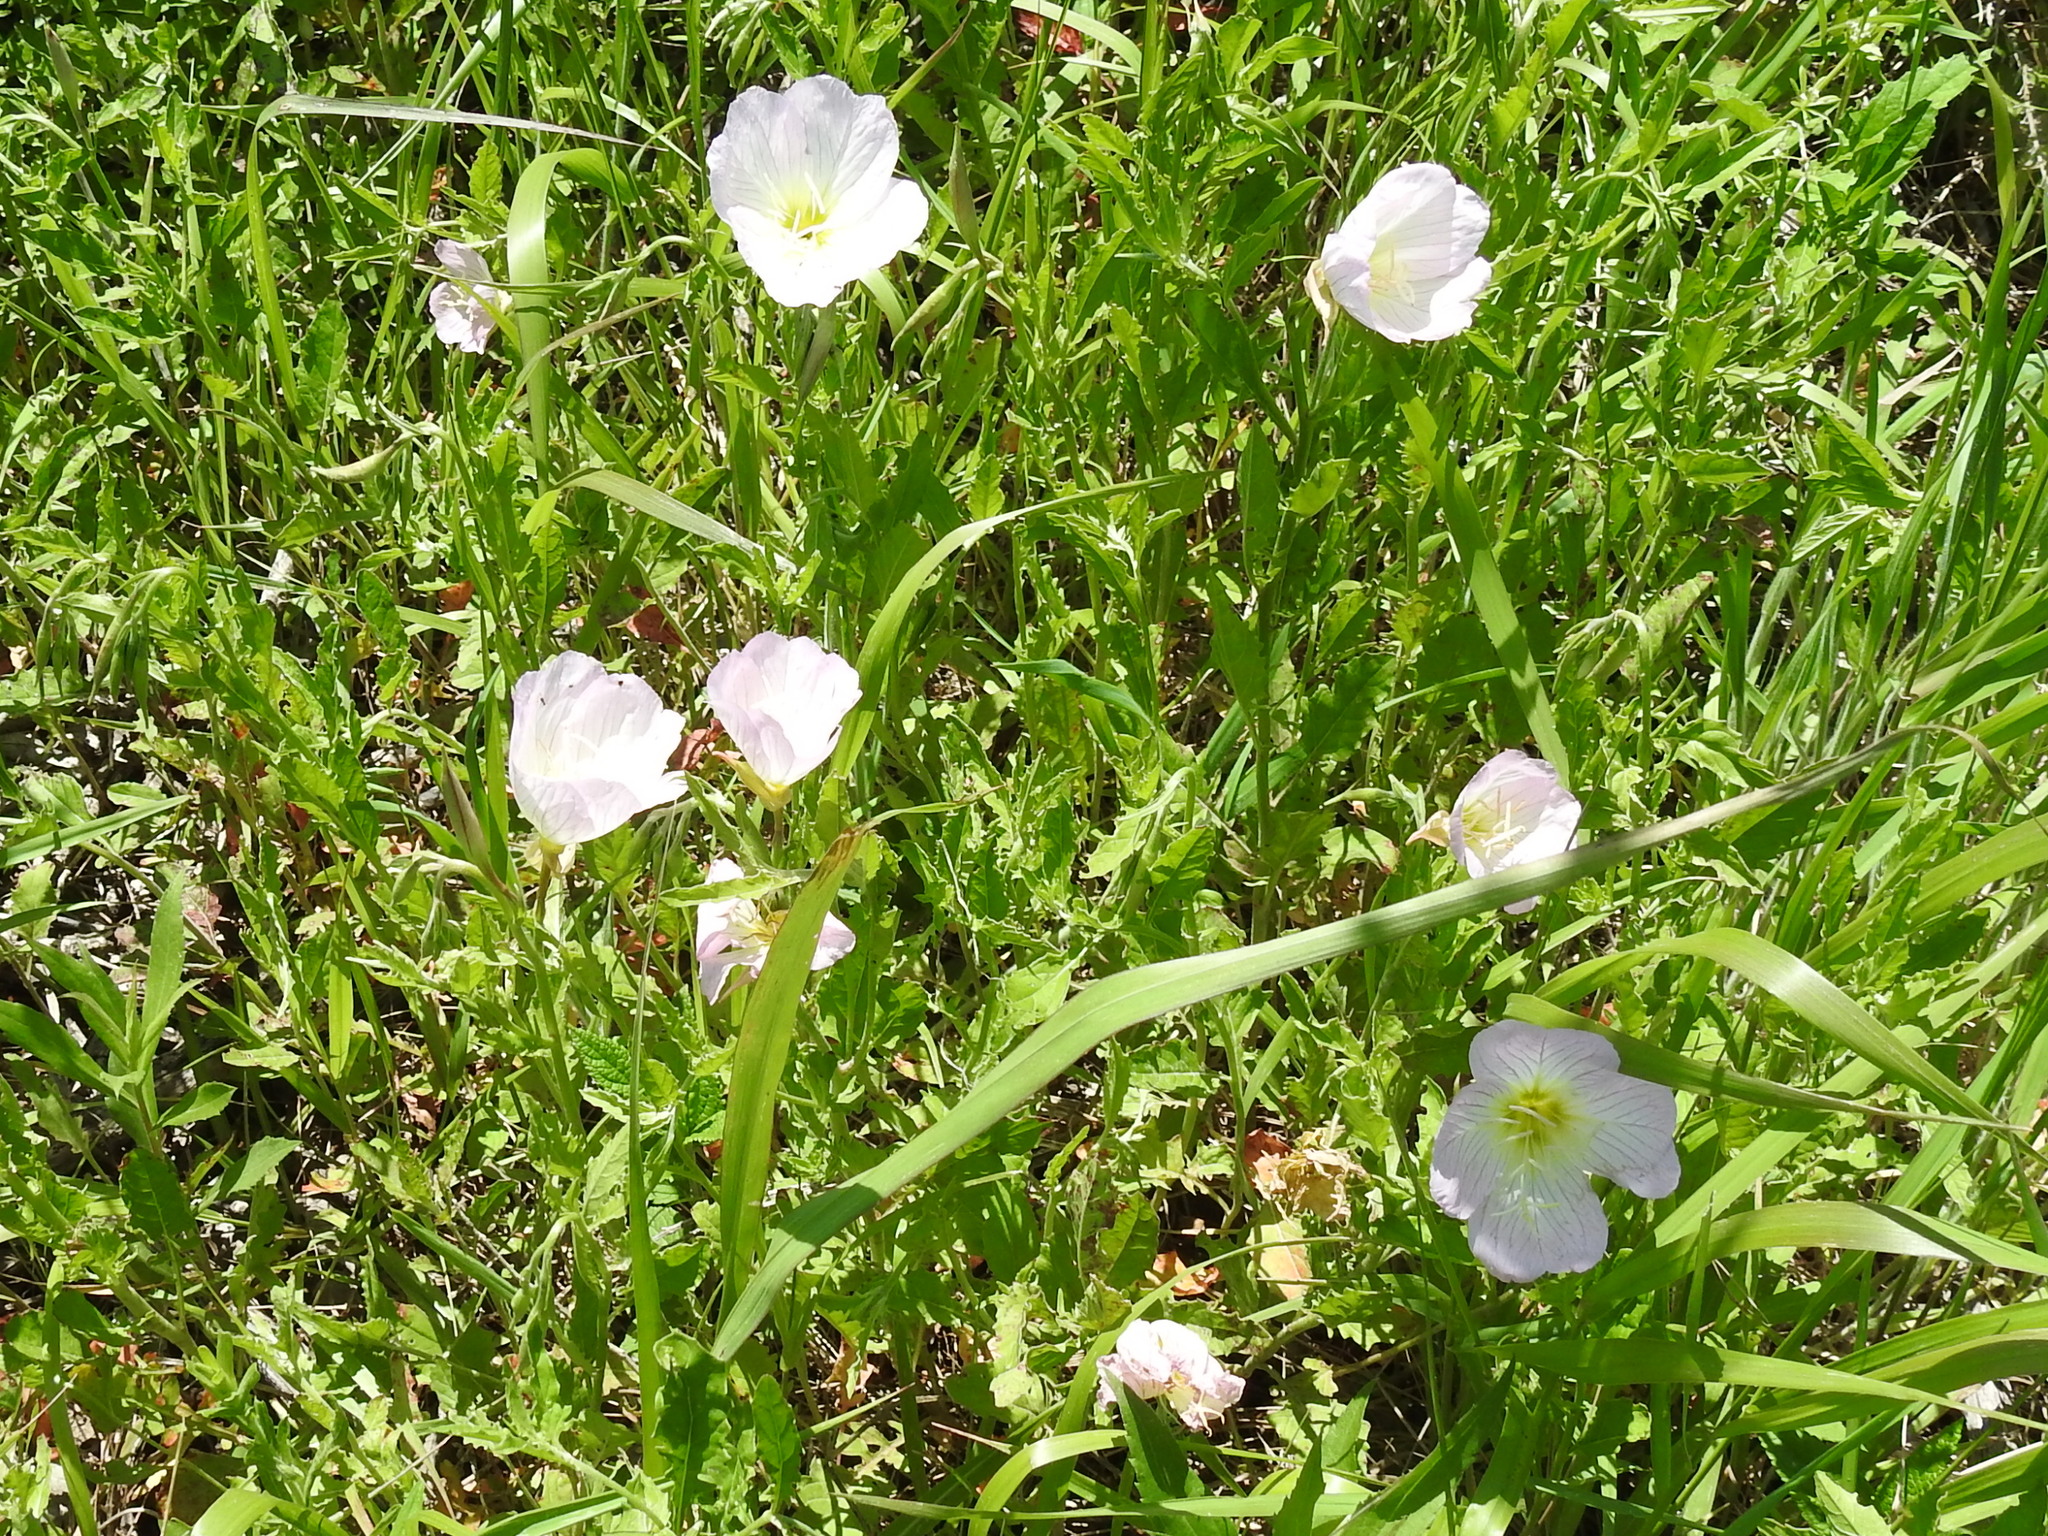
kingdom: Plantae
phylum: Tracheophyta
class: Magnoliopsida
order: Myrtales
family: Onagraceae
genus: Oenothera
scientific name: Oenothera speciosa
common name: White evening-primrose
